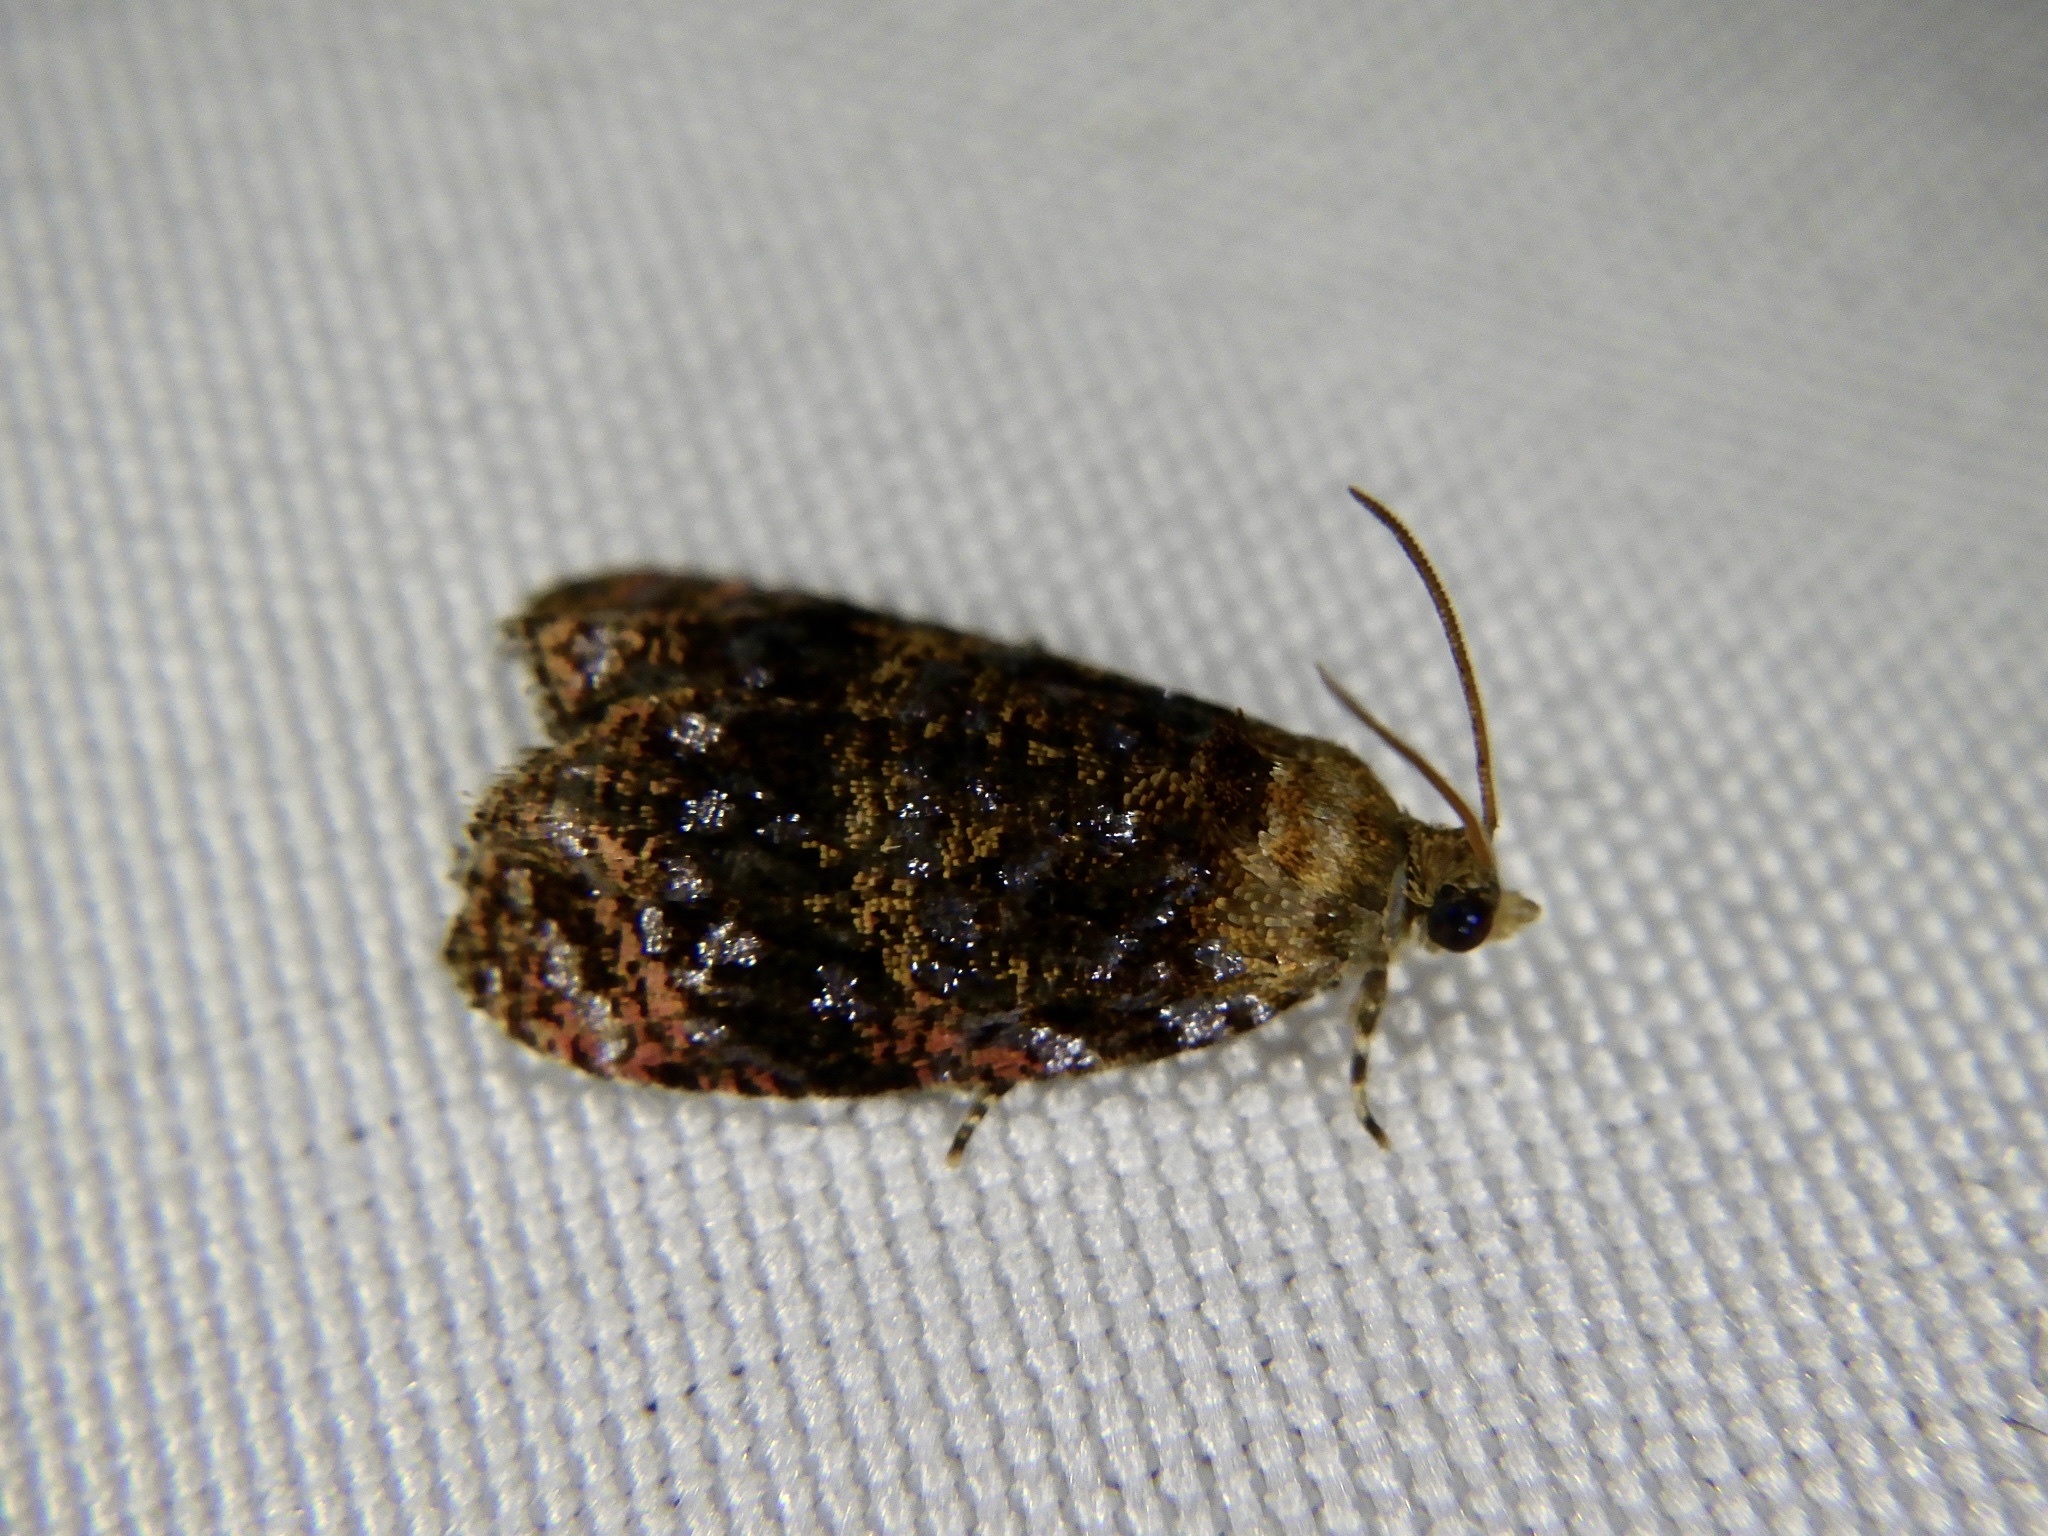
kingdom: Animalia
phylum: Arthropoda
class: Insecta
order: Lepidoptera
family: Tortricidae
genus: Ukamenia
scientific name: Ukamenia sapporensis
